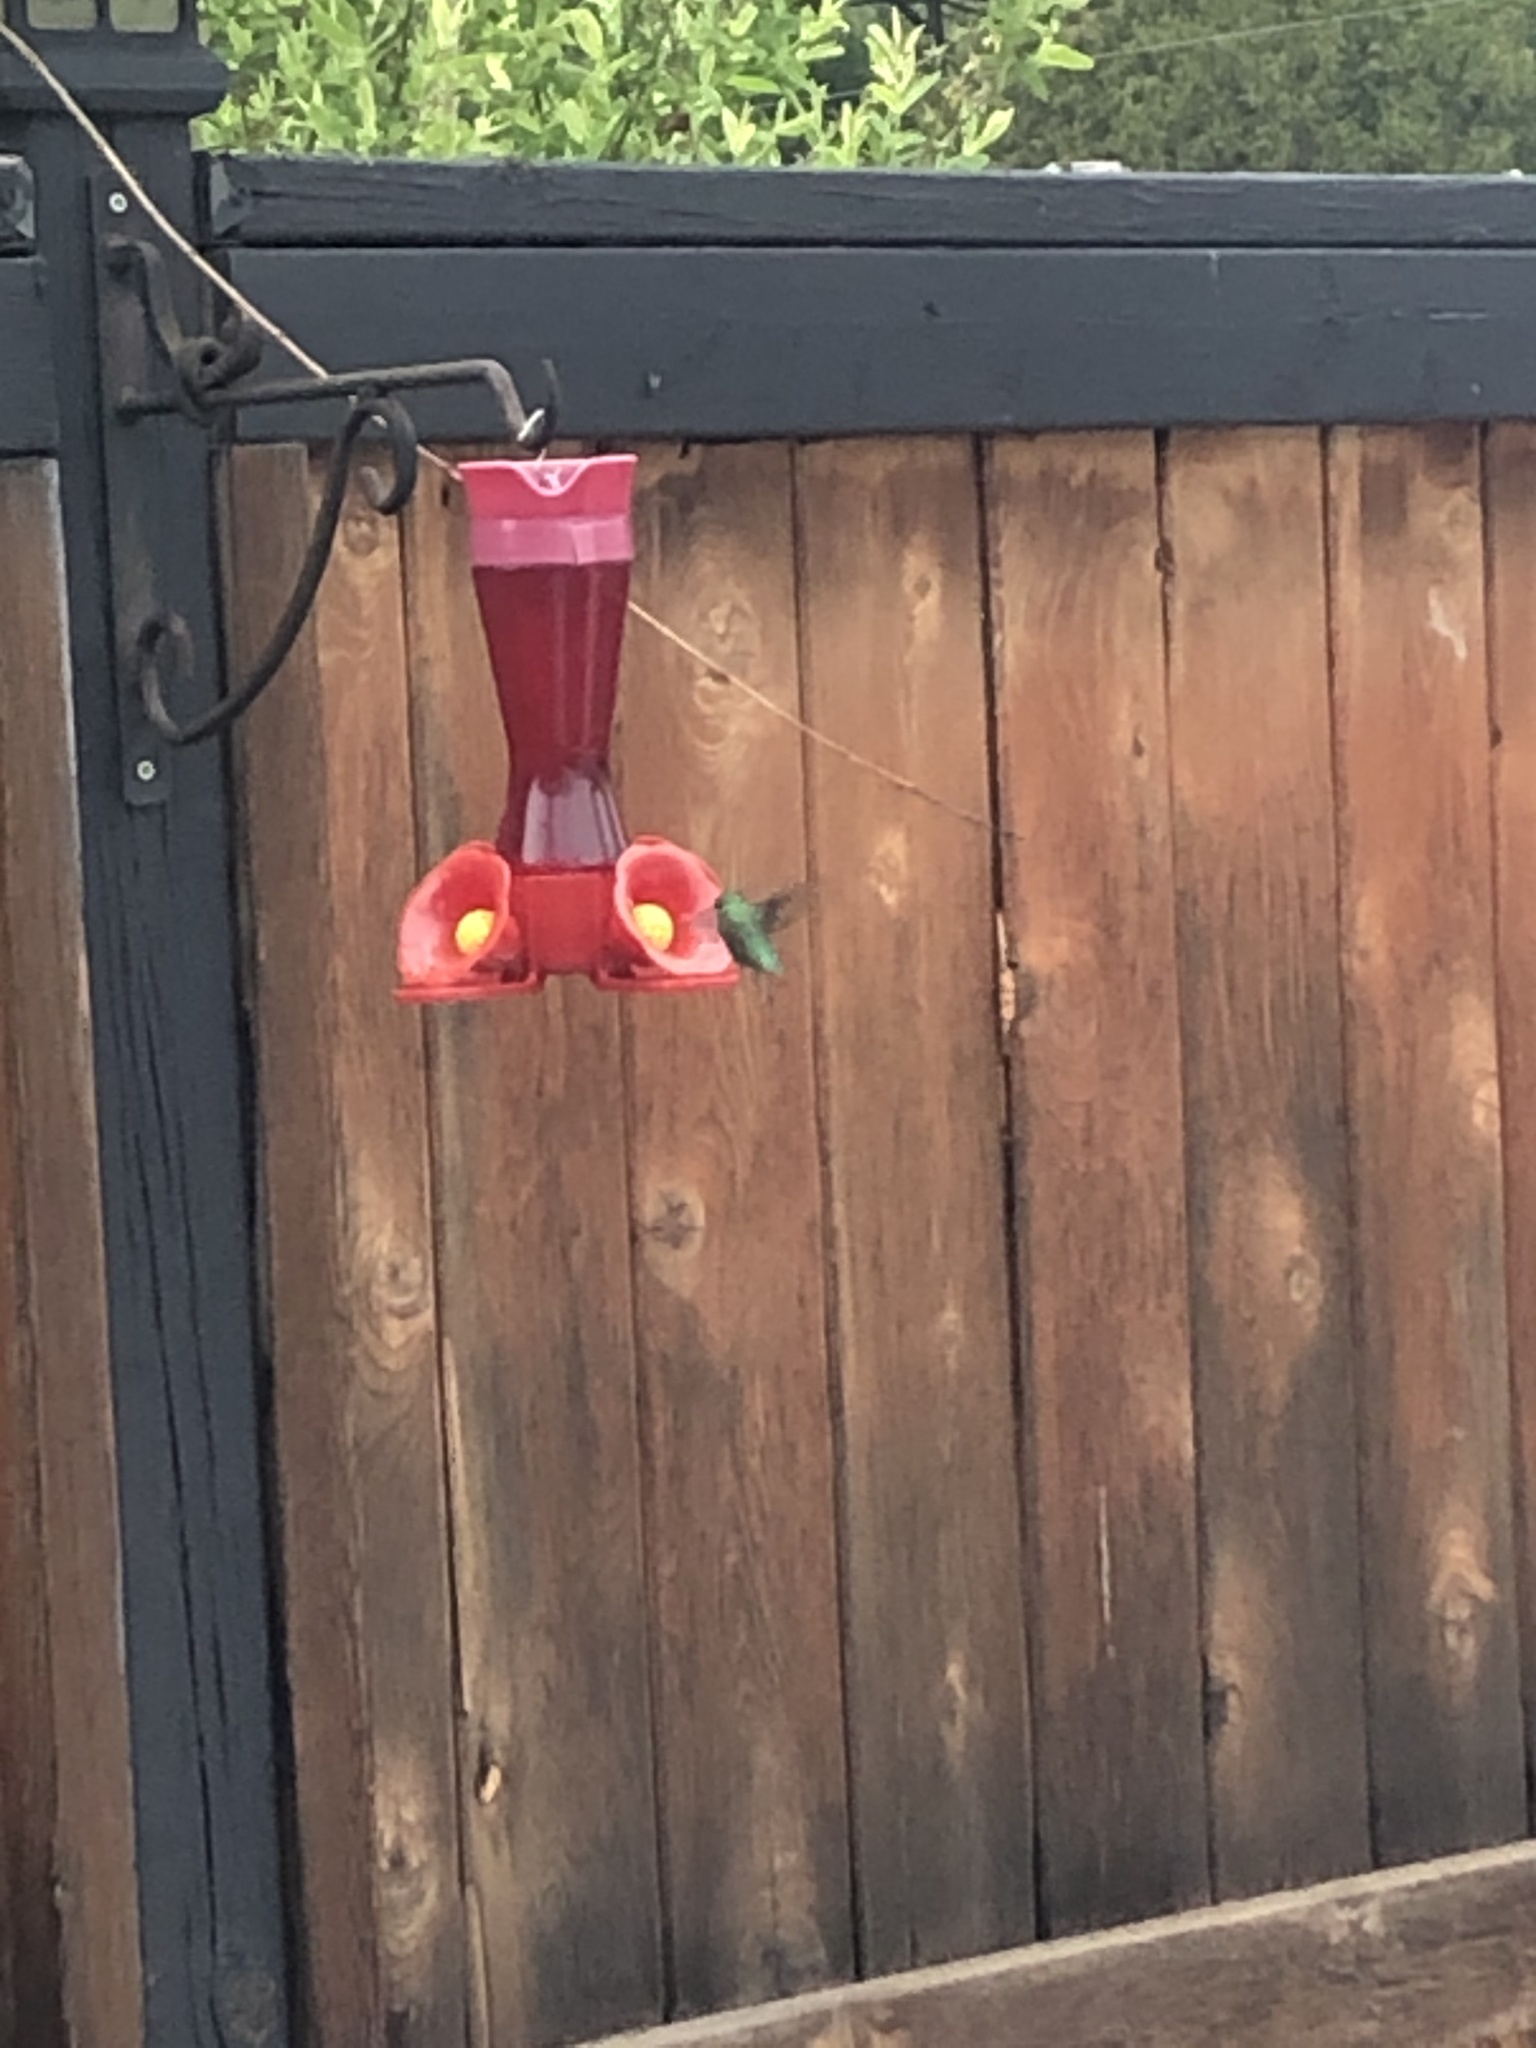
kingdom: Animalia
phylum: Chordata
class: Aves
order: Apodiformes
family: Trochilidae
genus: Archilochus
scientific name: Archilochus colubris
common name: Ruby-throated hummingbird
